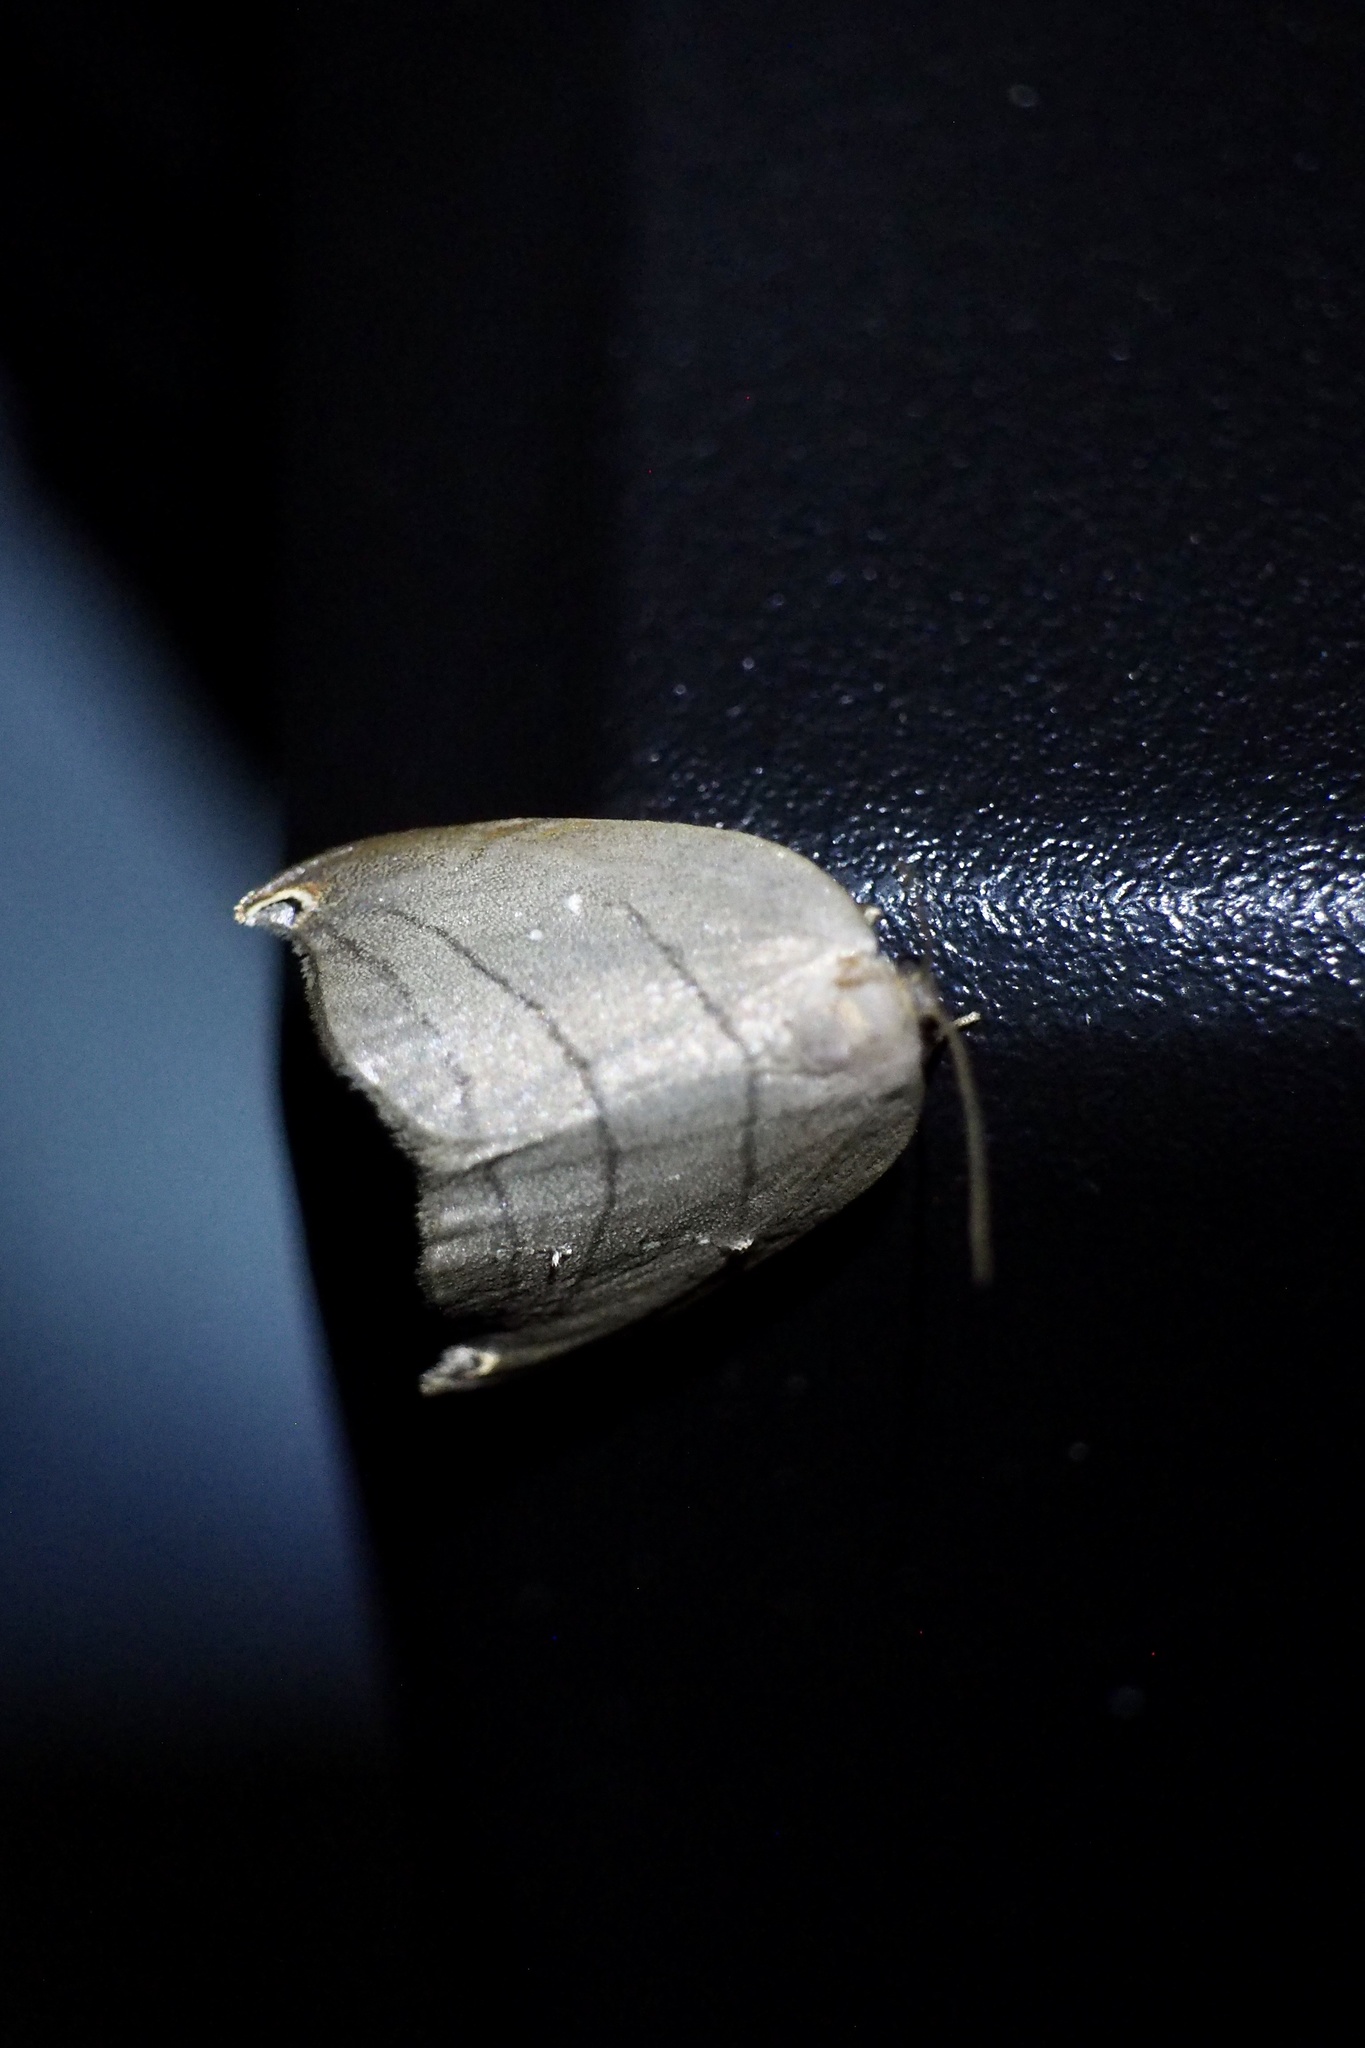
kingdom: Animalia
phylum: Arthropoda
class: Insecta
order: Lepidoptera
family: Drepanidae
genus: Pseudalbara
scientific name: Pseudalbara parvula
